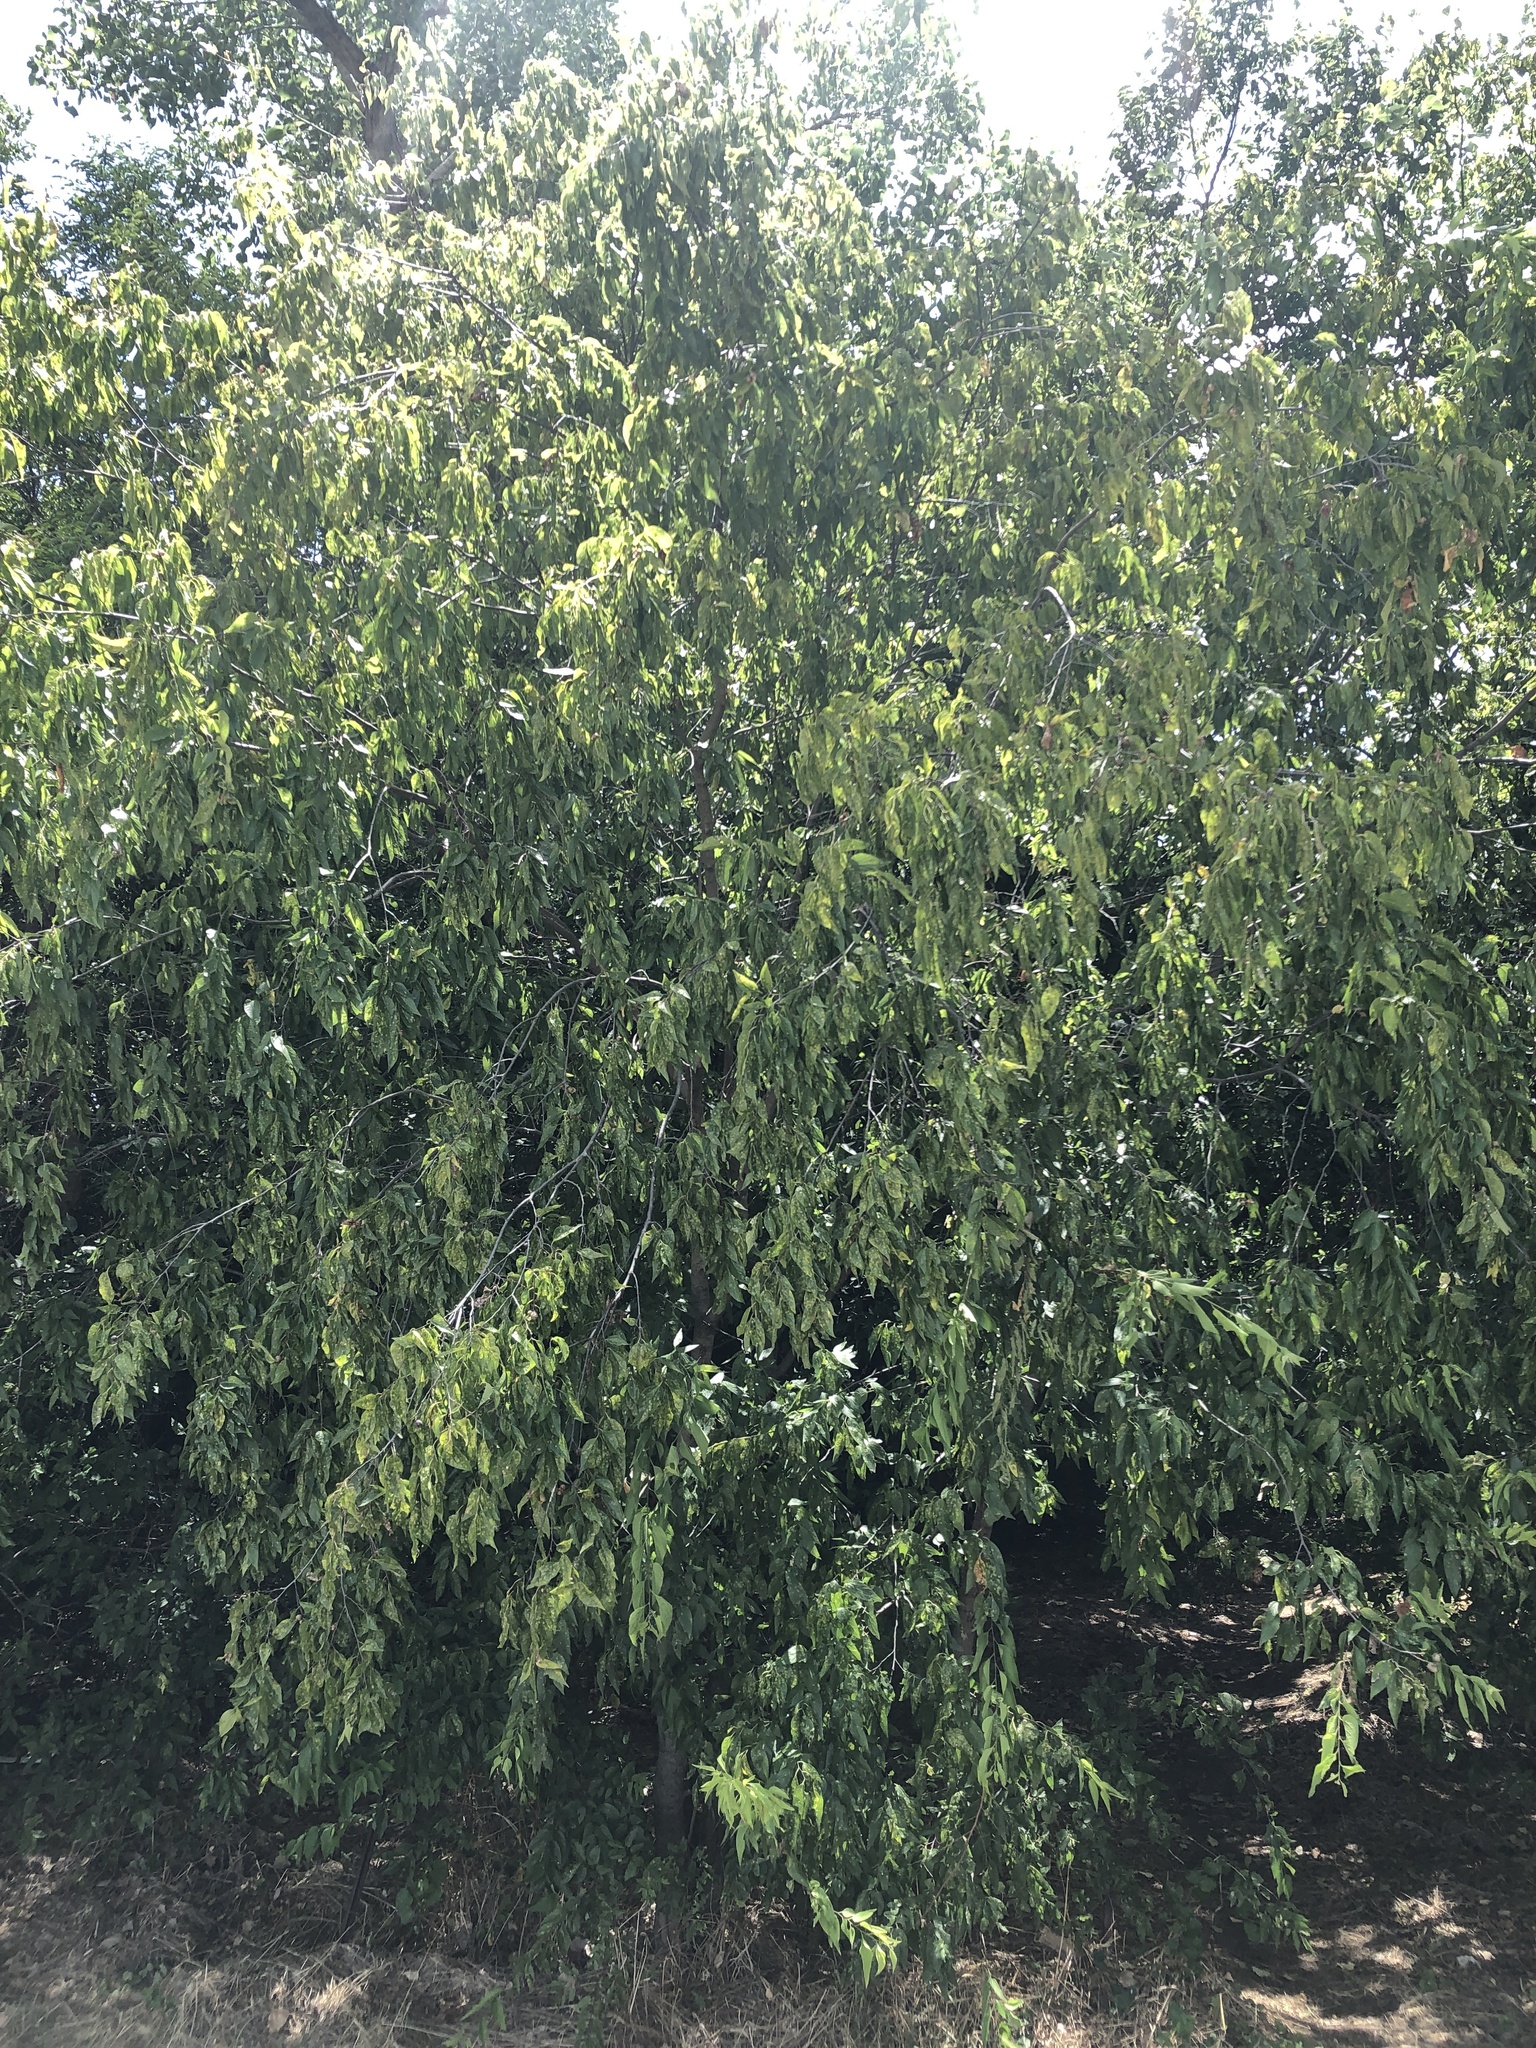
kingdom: Plantae
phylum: Tracheophyta
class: Magnoliopsida
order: Rosales
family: Cannabaceae
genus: Celtis
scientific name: Celtis laevigata
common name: Sugarberry
